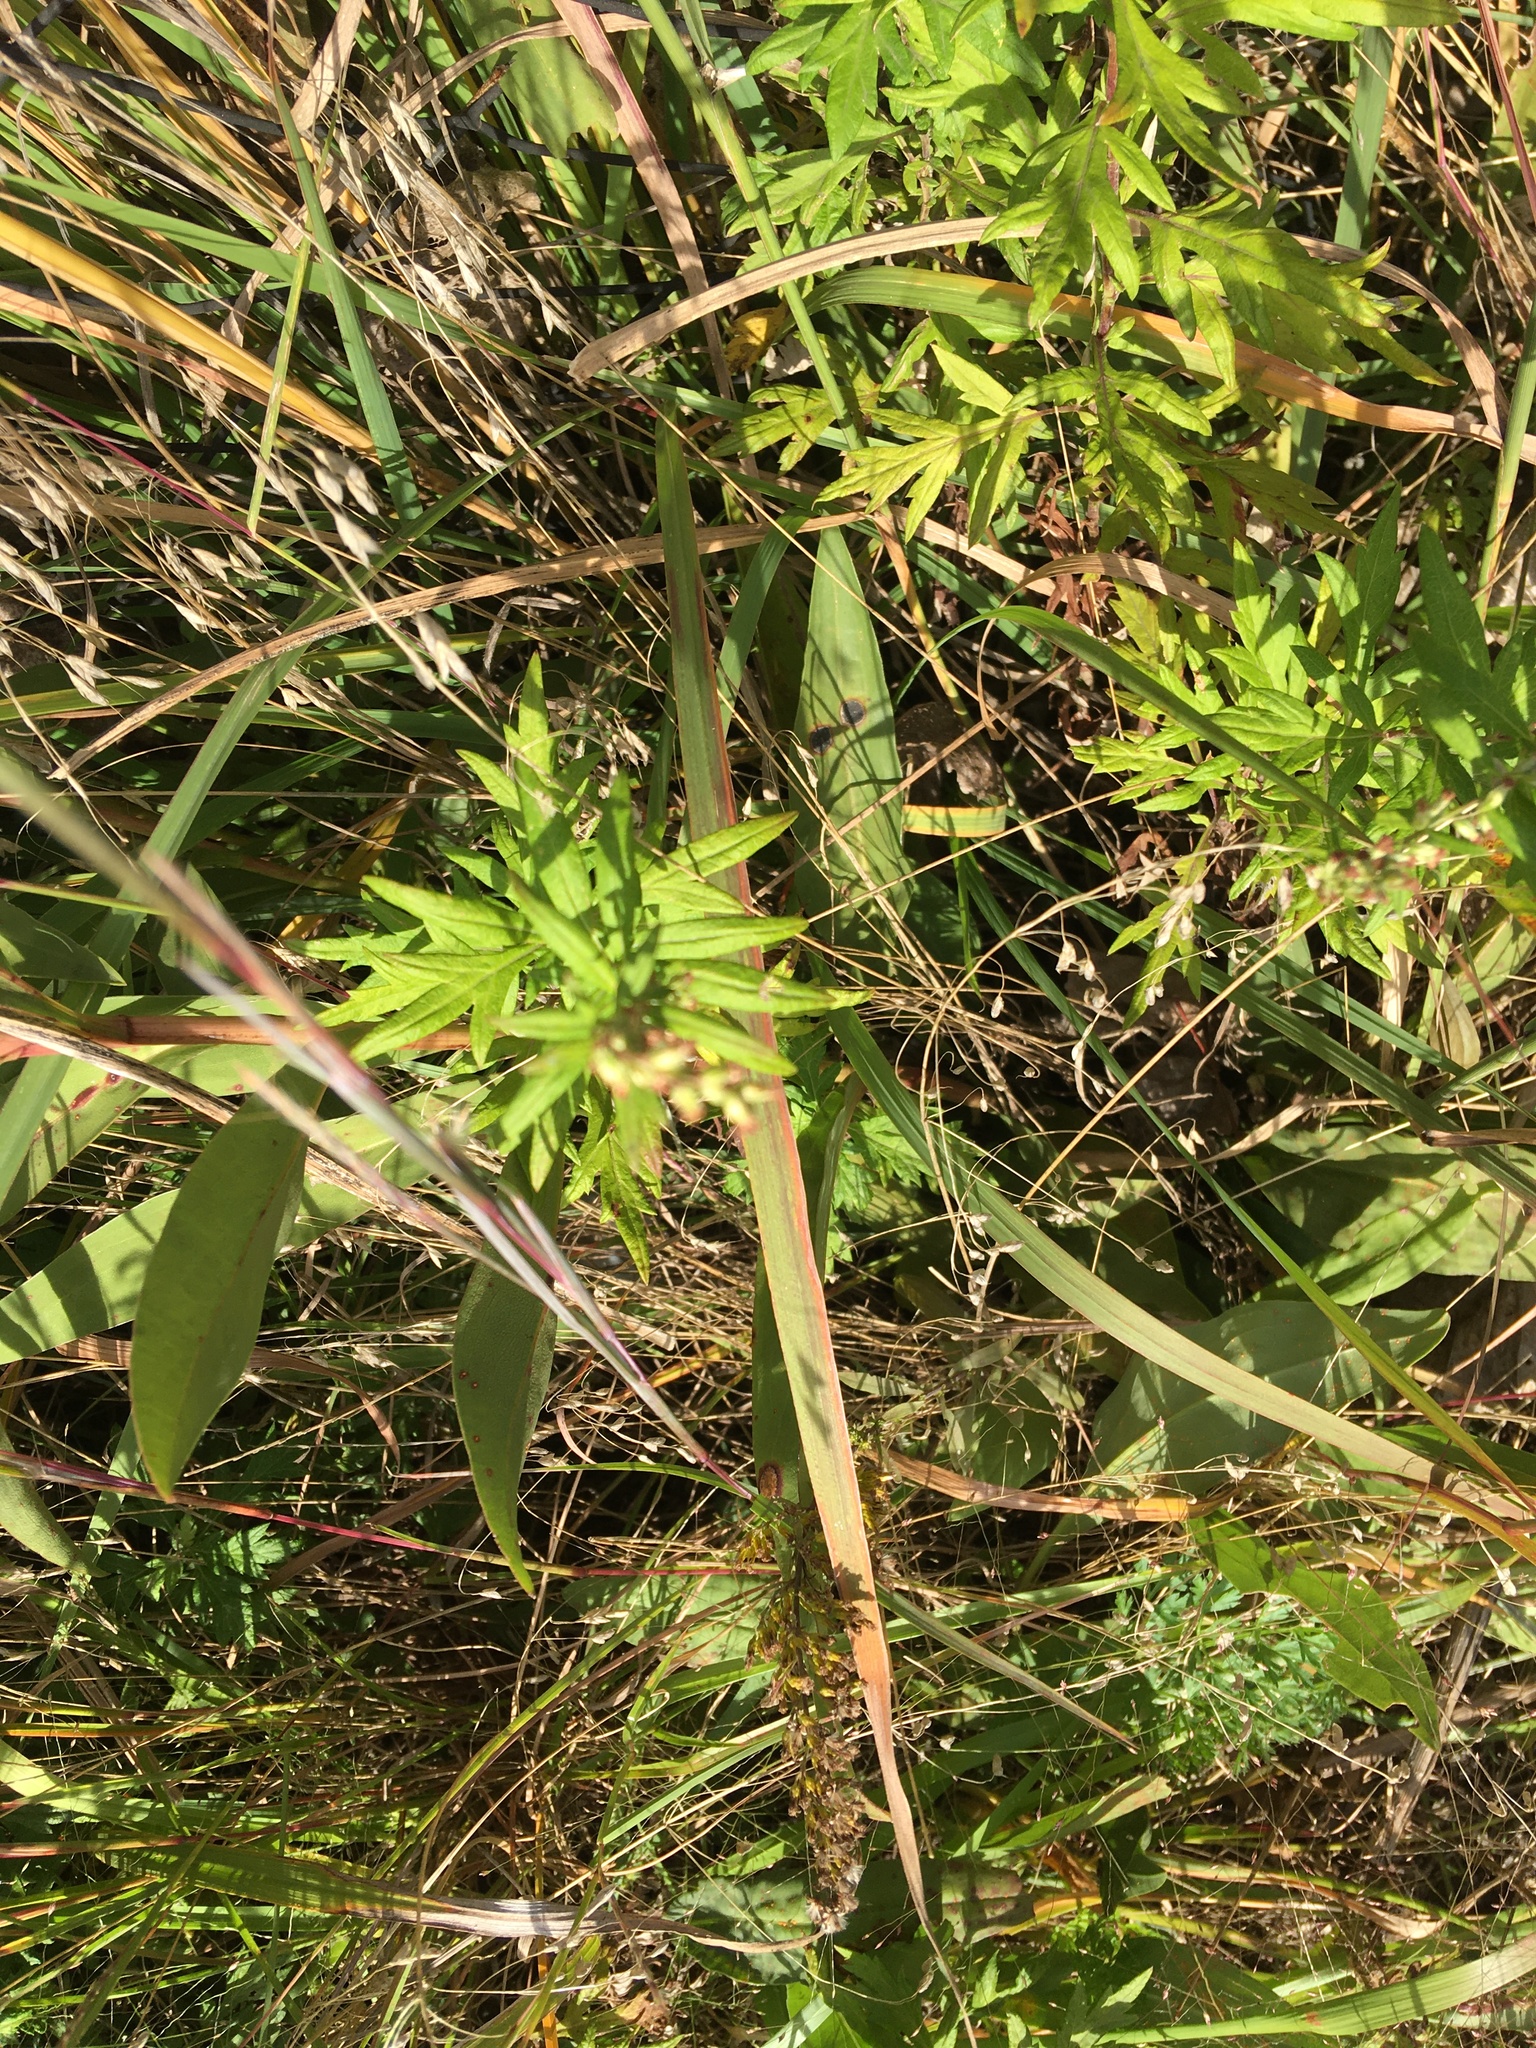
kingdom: Plantae
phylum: Tracheophyta
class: Magnoliopsida
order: Asterales
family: Asteraceae
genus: Artemisia
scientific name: Artemisia vulgaris
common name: Mugwort
